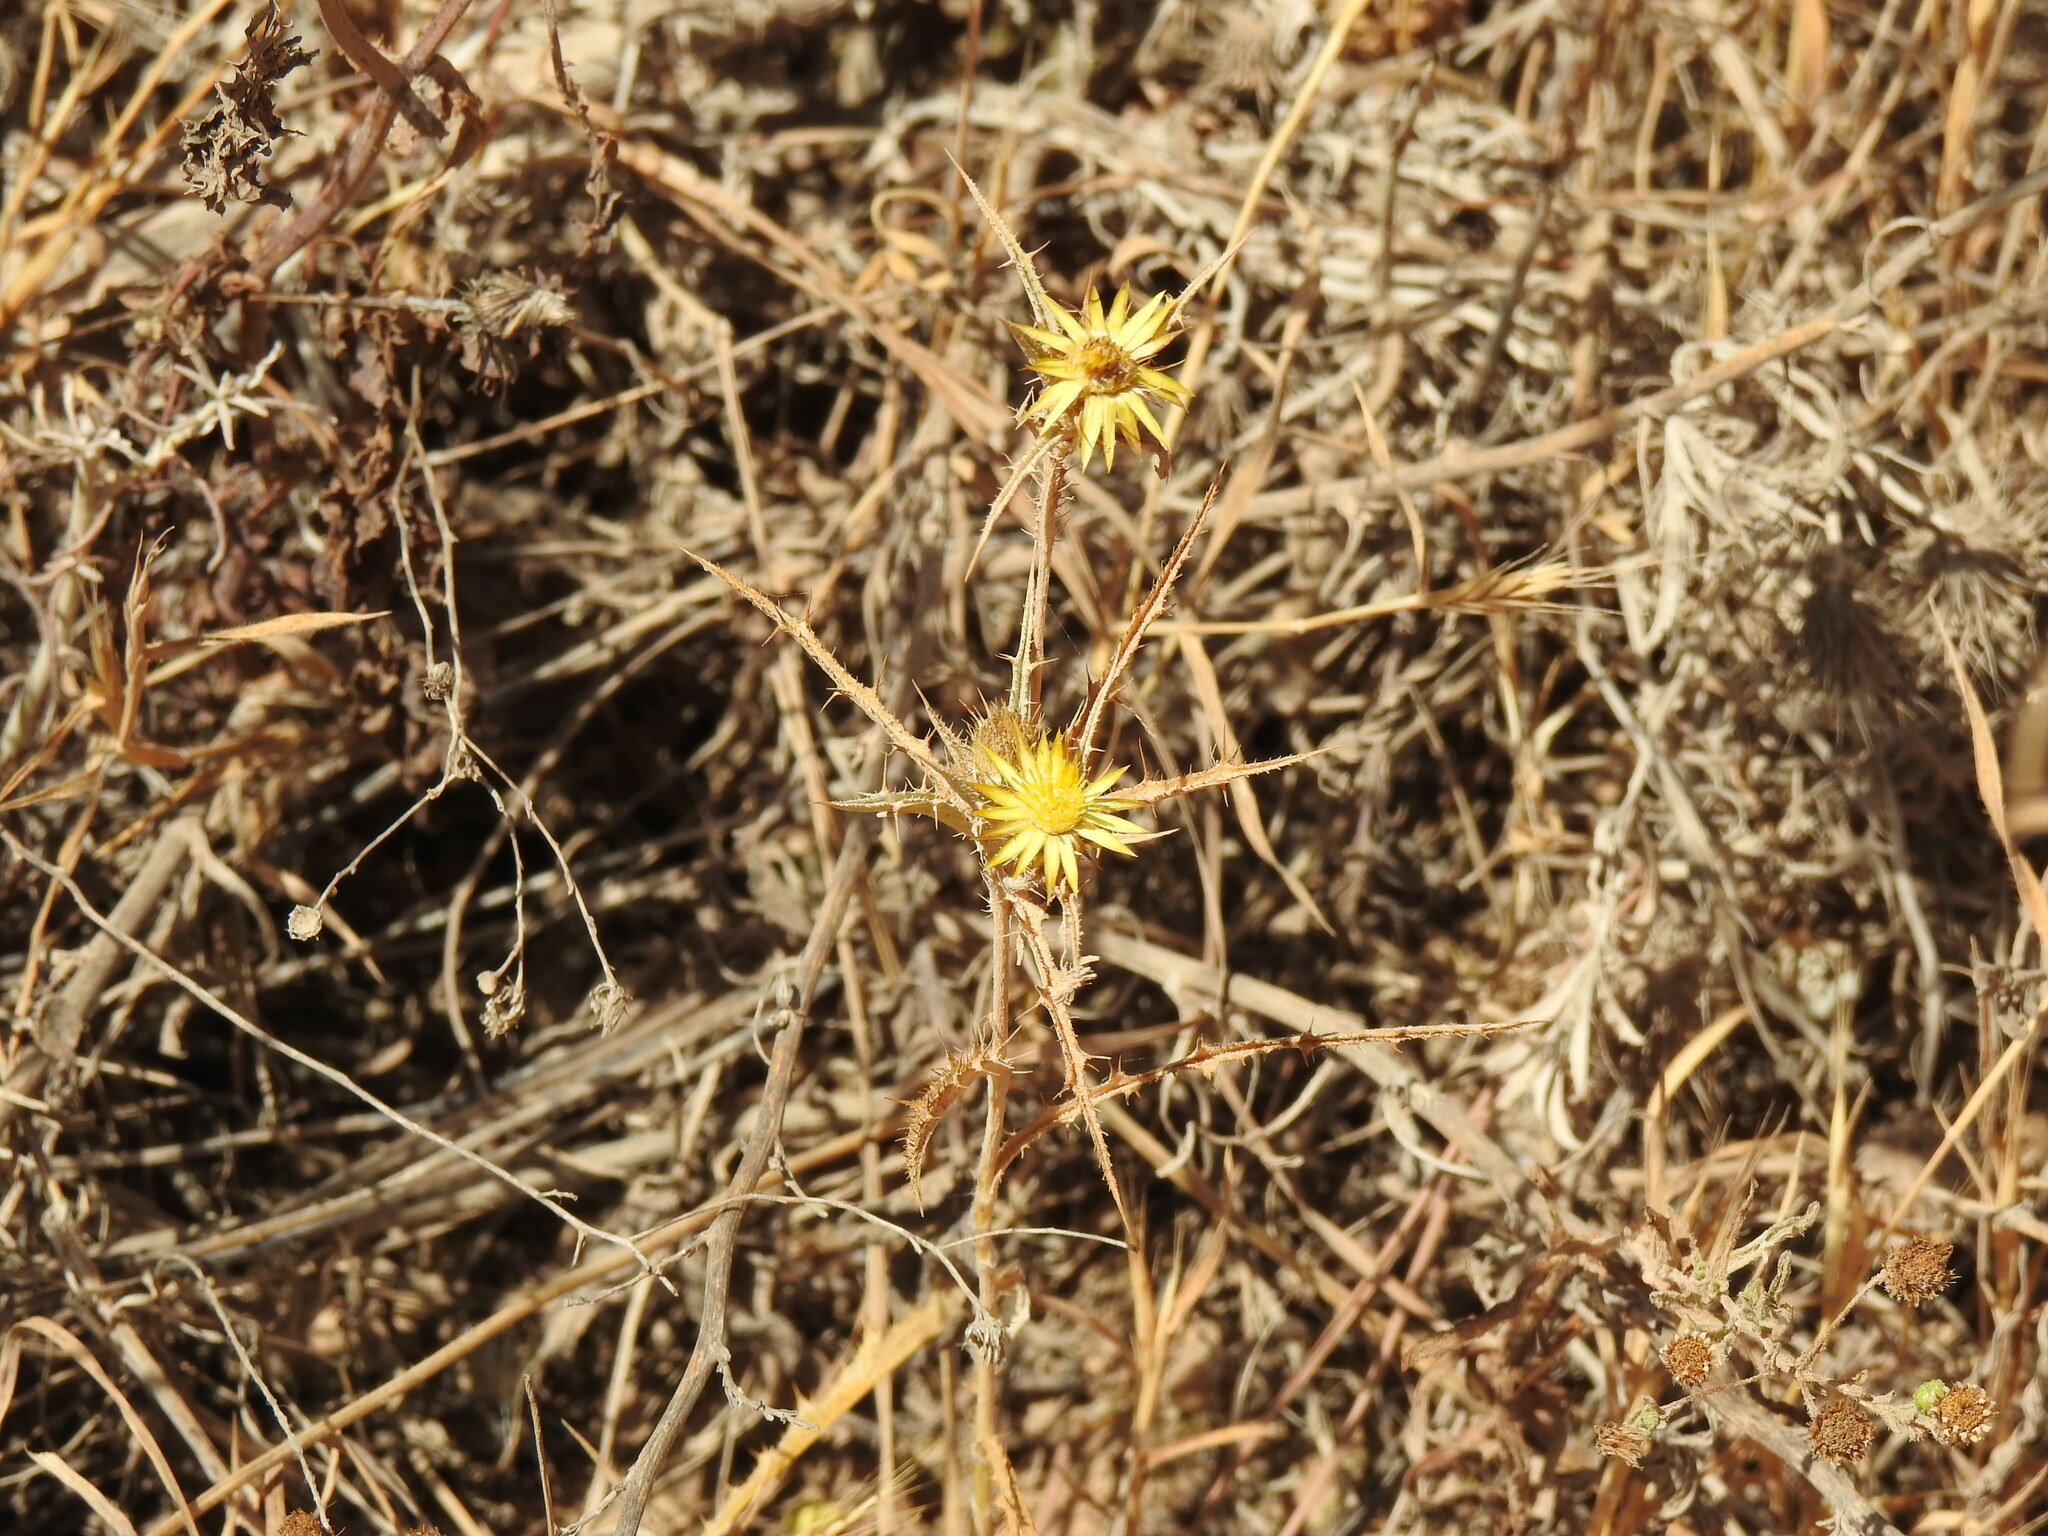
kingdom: Plantae
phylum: Tracheophyta
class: Magnoliopsida
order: Asterales
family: Asteraceae
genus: Carlina
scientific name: Carlina racemosa
